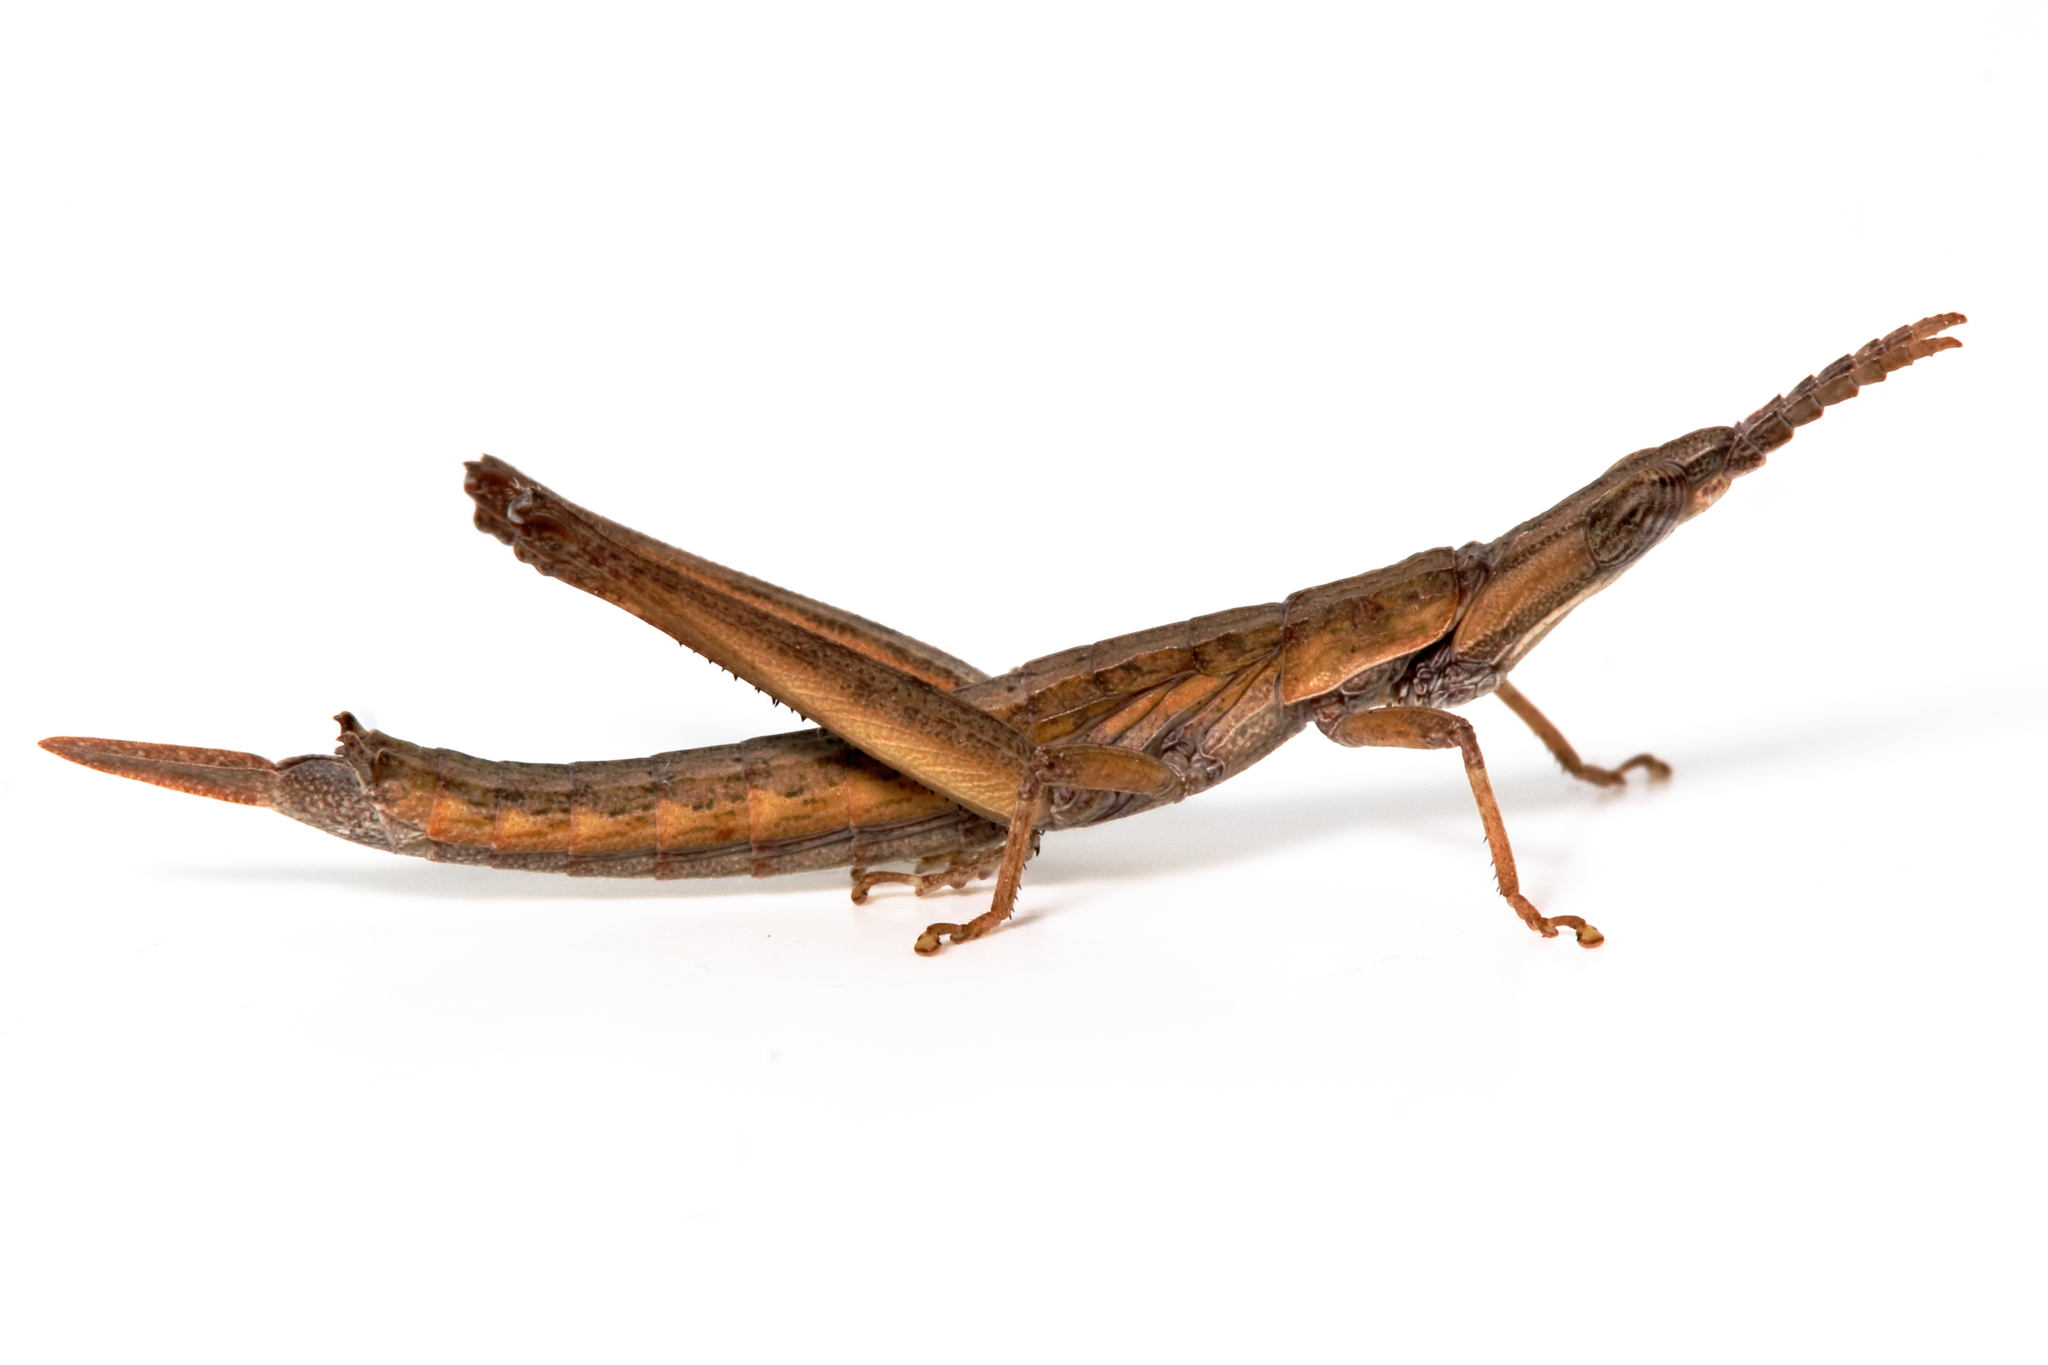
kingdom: Animalia
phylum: Arthropoda
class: Insecta
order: Orthoptera
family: Morabidae
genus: Vandiemenella
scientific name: Vandiemenella viatica
